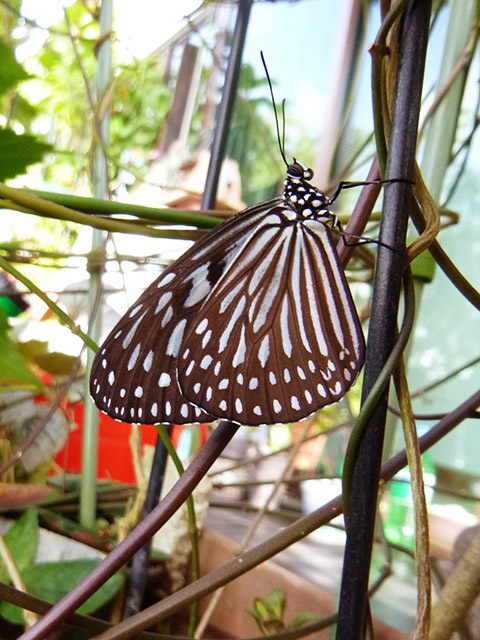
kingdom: Animalia
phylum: Arthropoda
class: Insecta
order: Lepidoptera
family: Nymphalidae
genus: Ideopsis
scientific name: Ideopsis vulgaris
